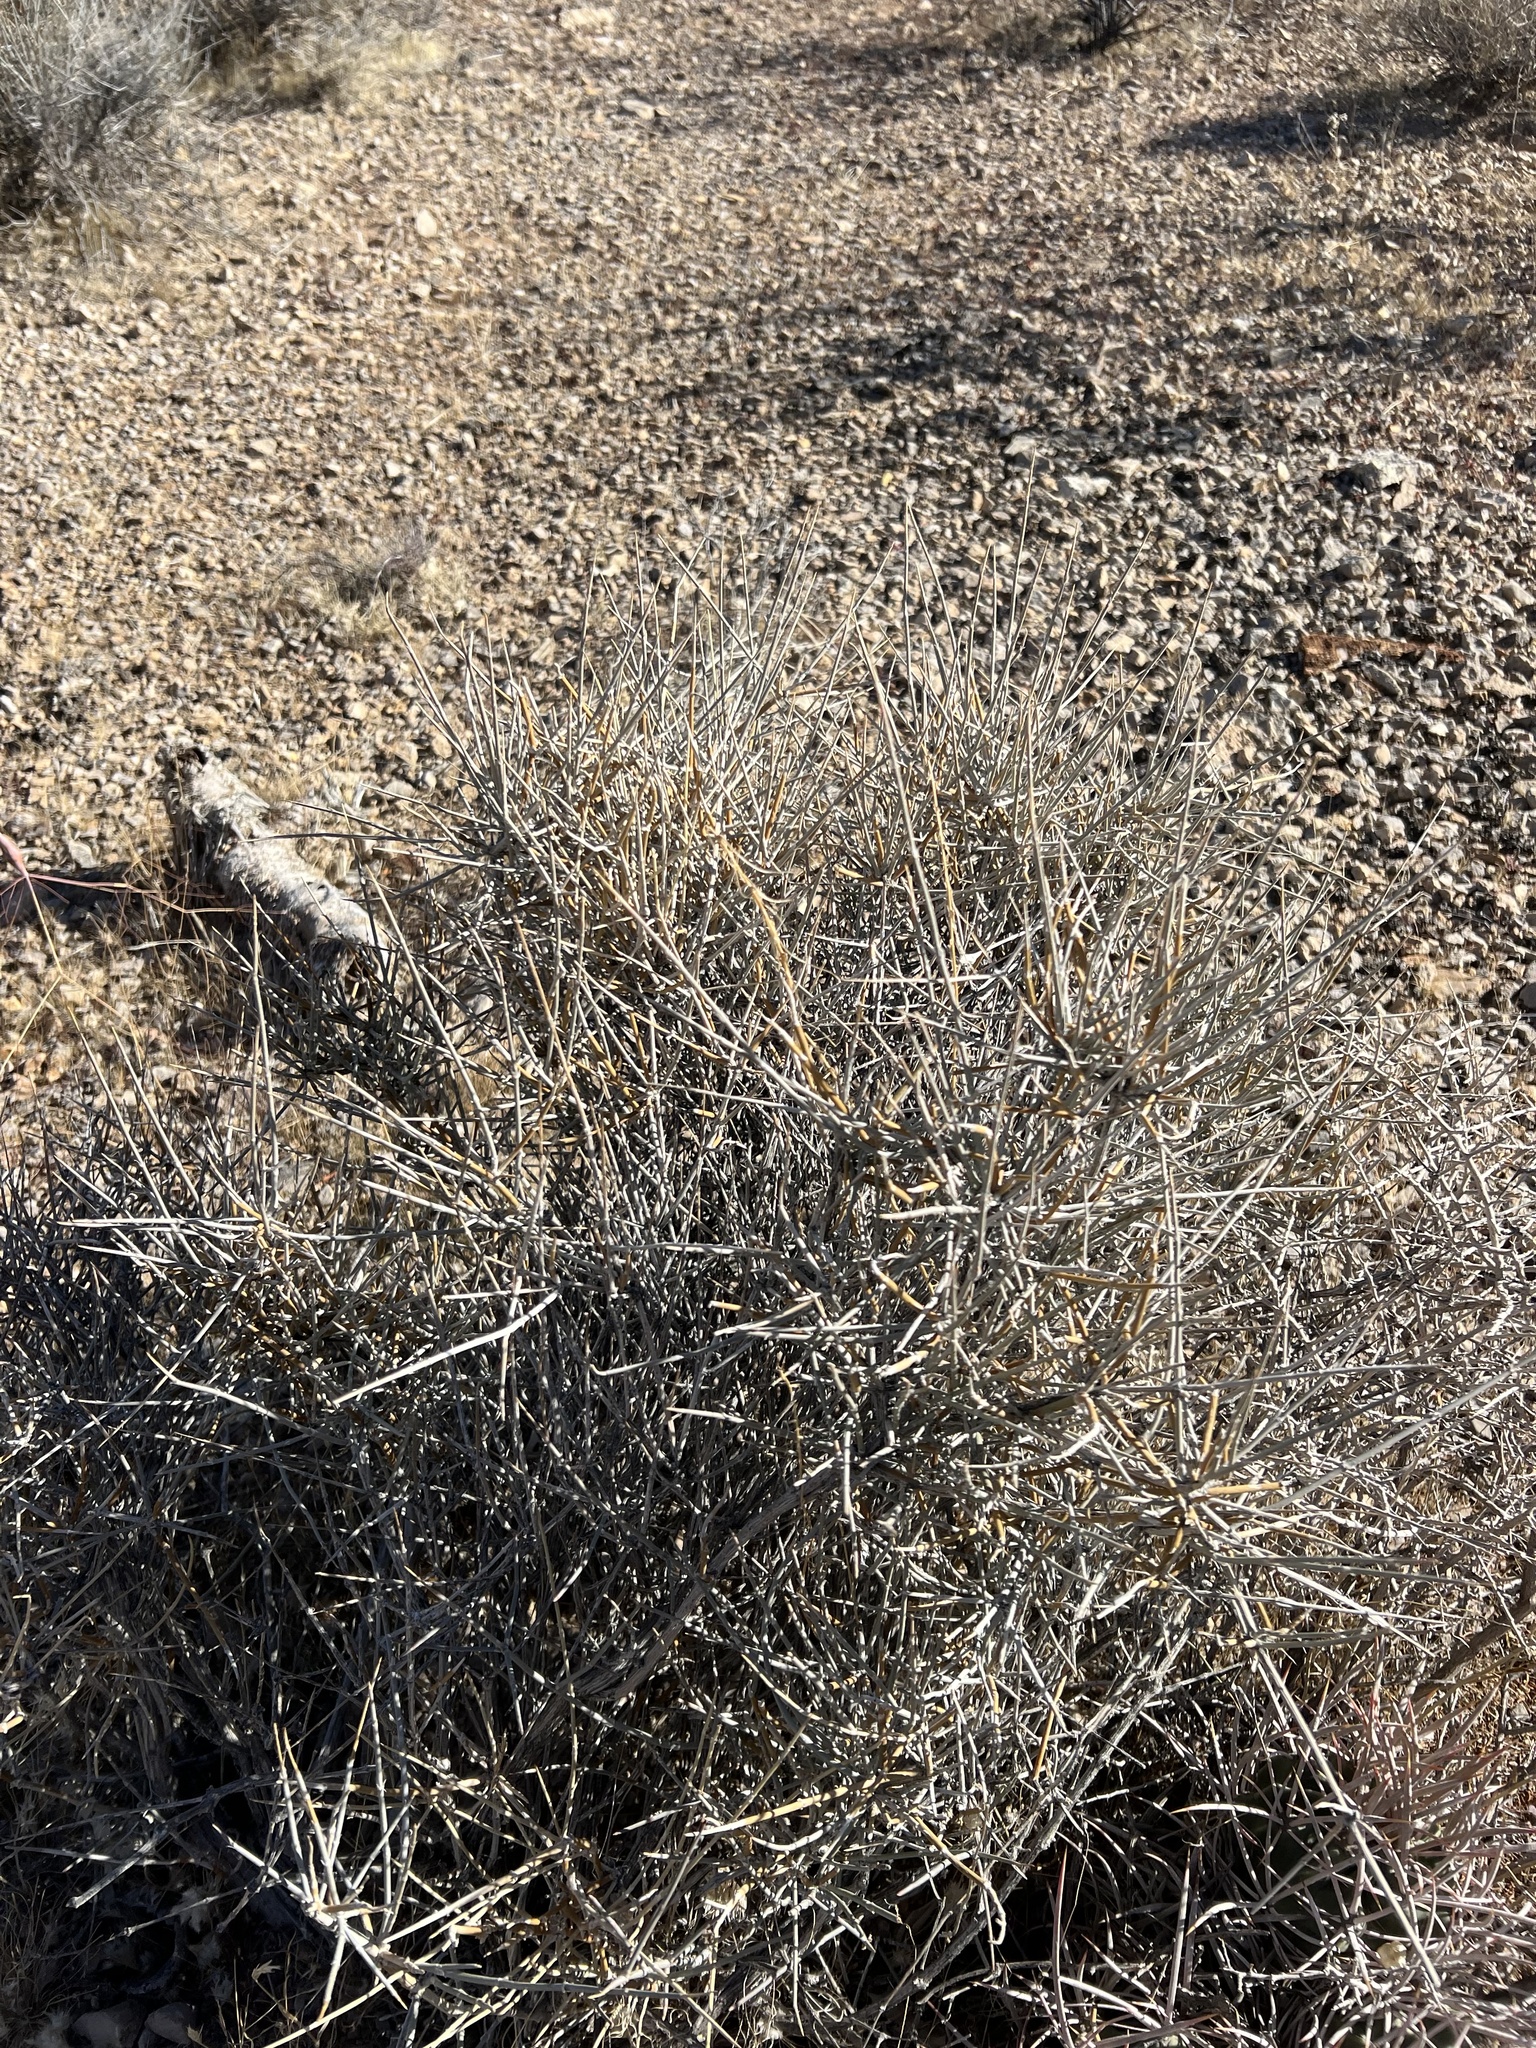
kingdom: Plantae
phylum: Tracheophyta
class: Gnetopsida
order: Ephedrales
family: Ephedraceae
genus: Ephedra
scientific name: Ephedra nevadensis
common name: Gray ephedra
